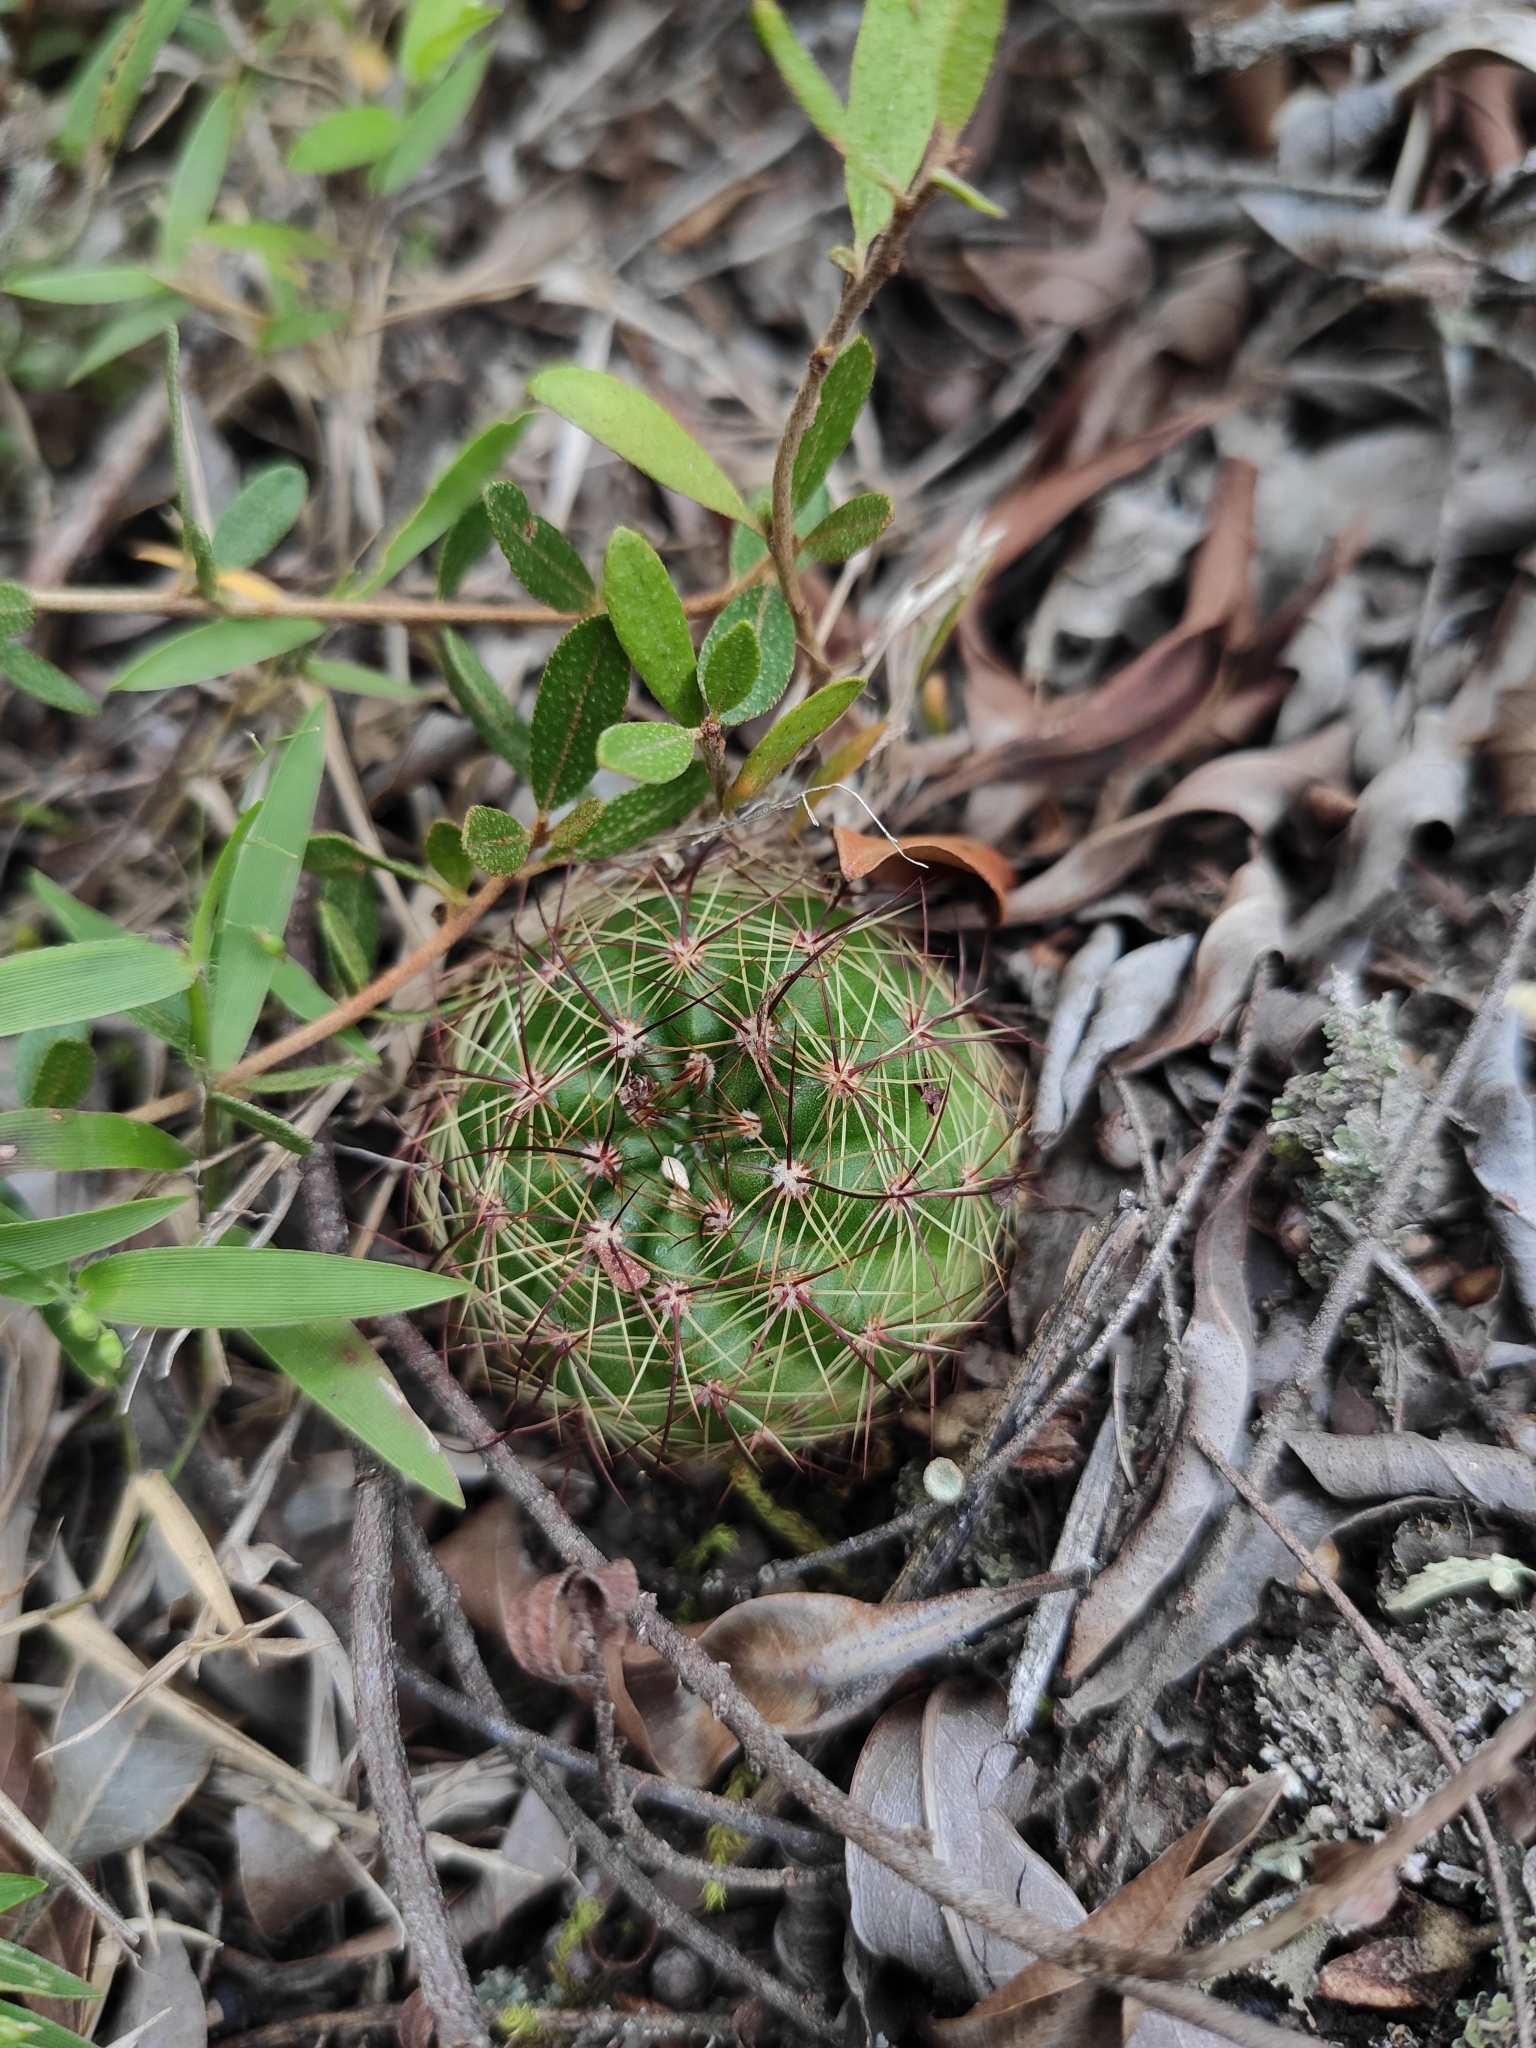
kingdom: Plantae
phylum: Tracheophyta
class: Magnoliopsida
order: Caryophyllales
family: Cactaceae
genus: Parodia
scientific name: Parodia ottonis
